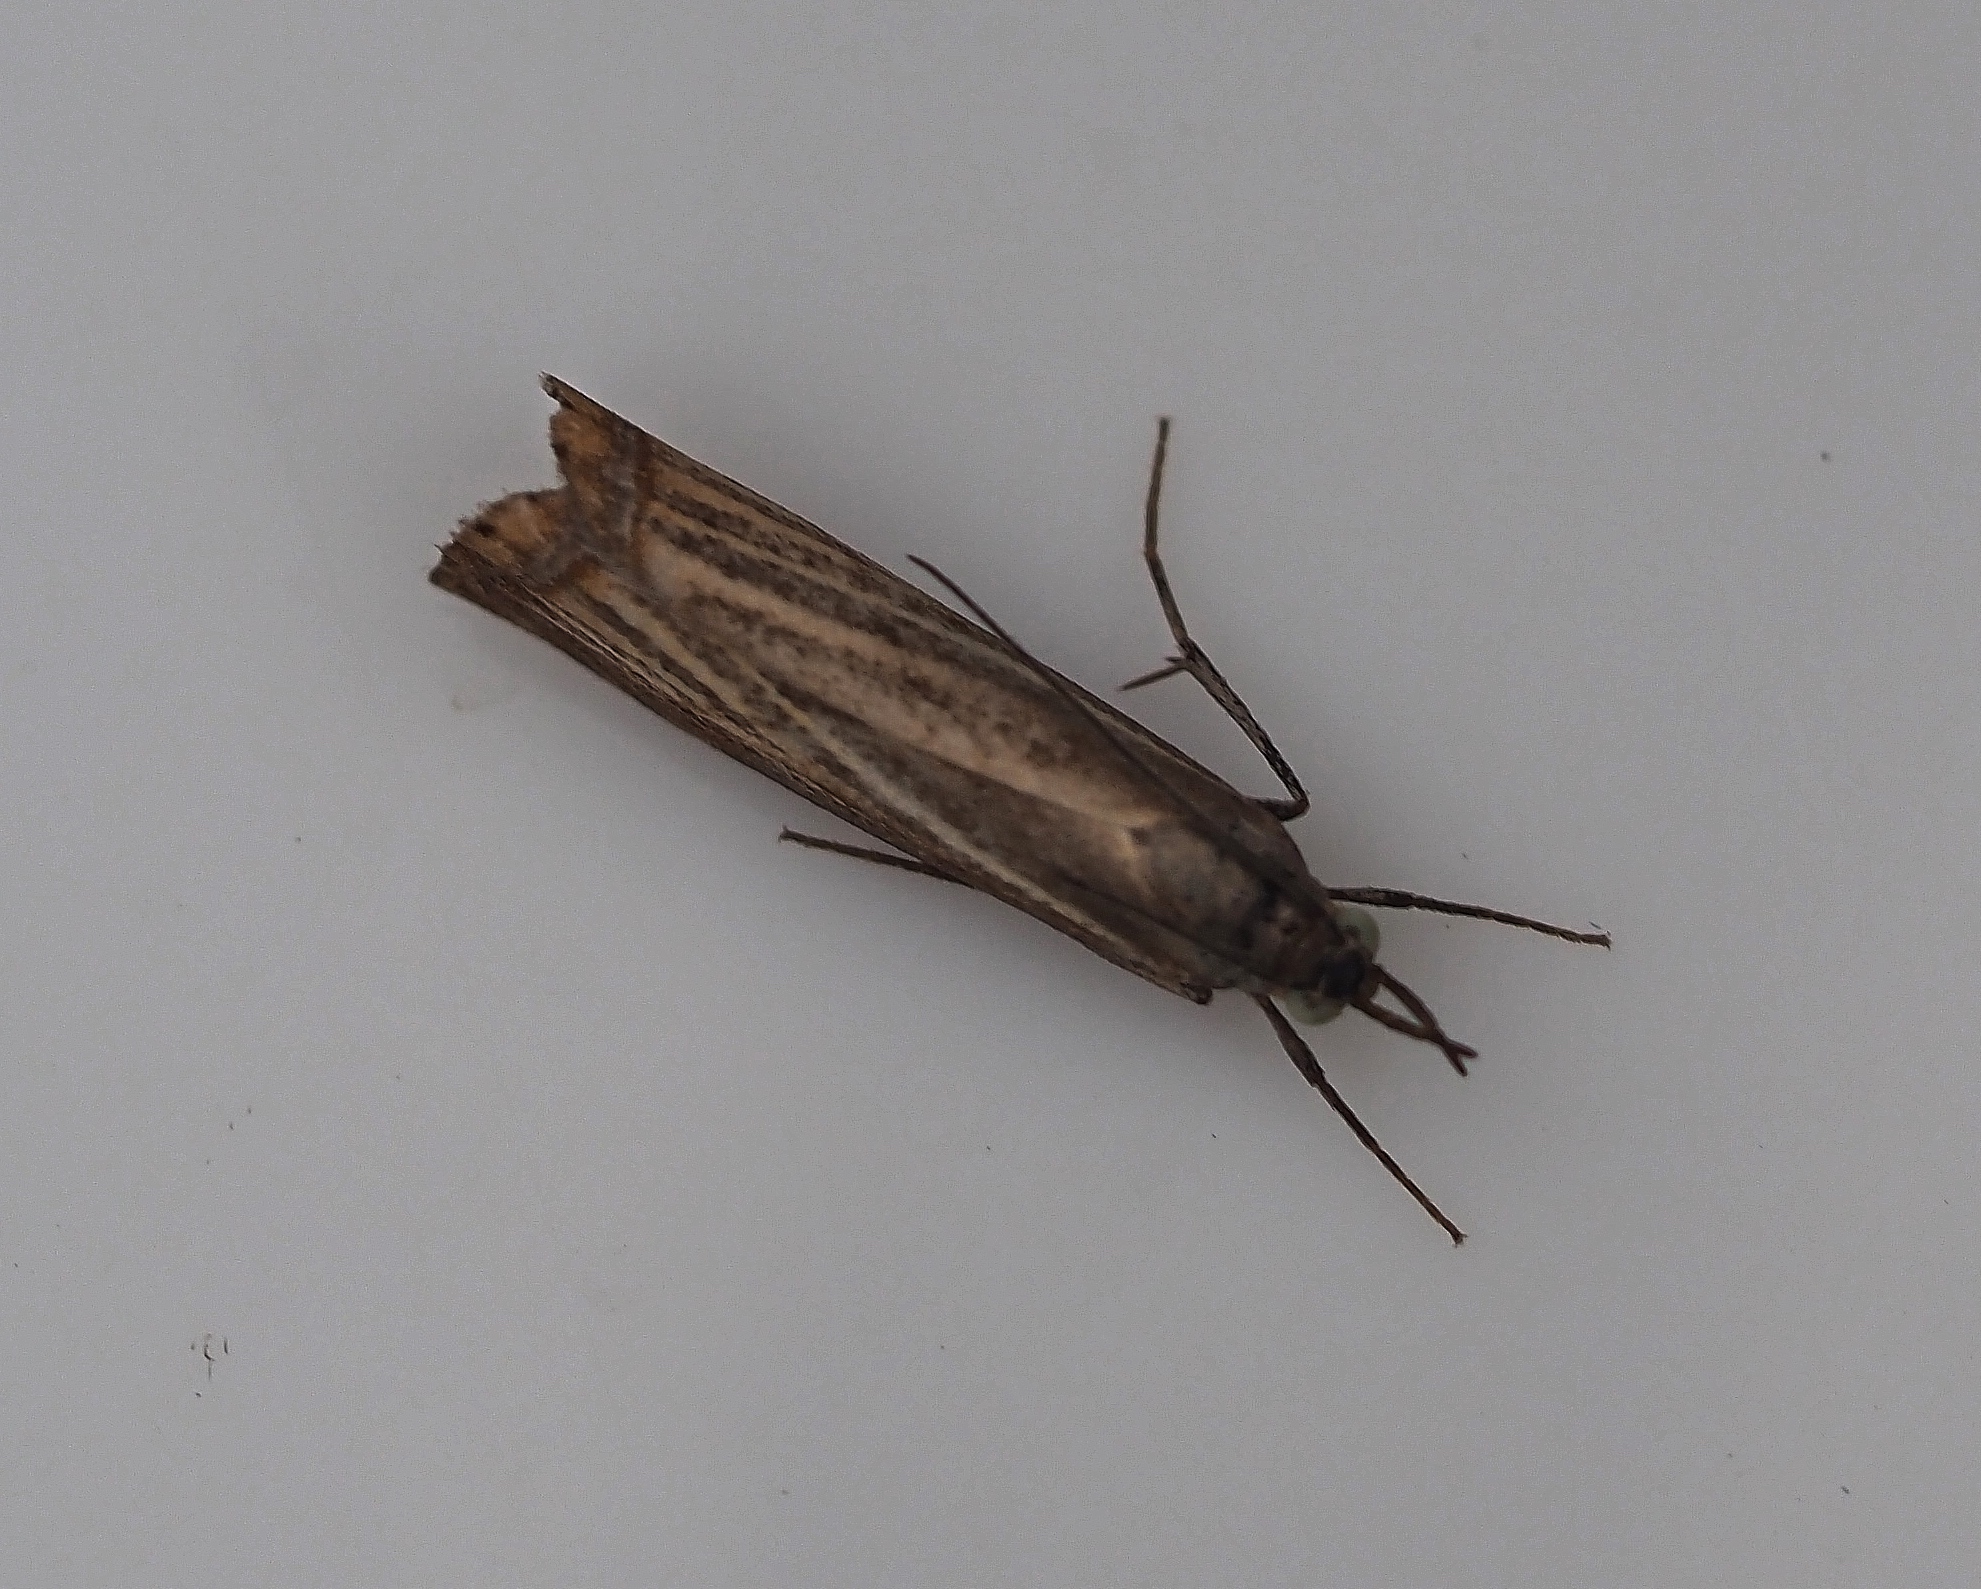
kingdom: Animalia
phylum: Arthropoda
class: Insecta
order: Lepidoptera
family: Crambidae
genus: Chrysoteuchia
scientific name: Chrysoteuchia culmella
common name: Garden grass-veneer
